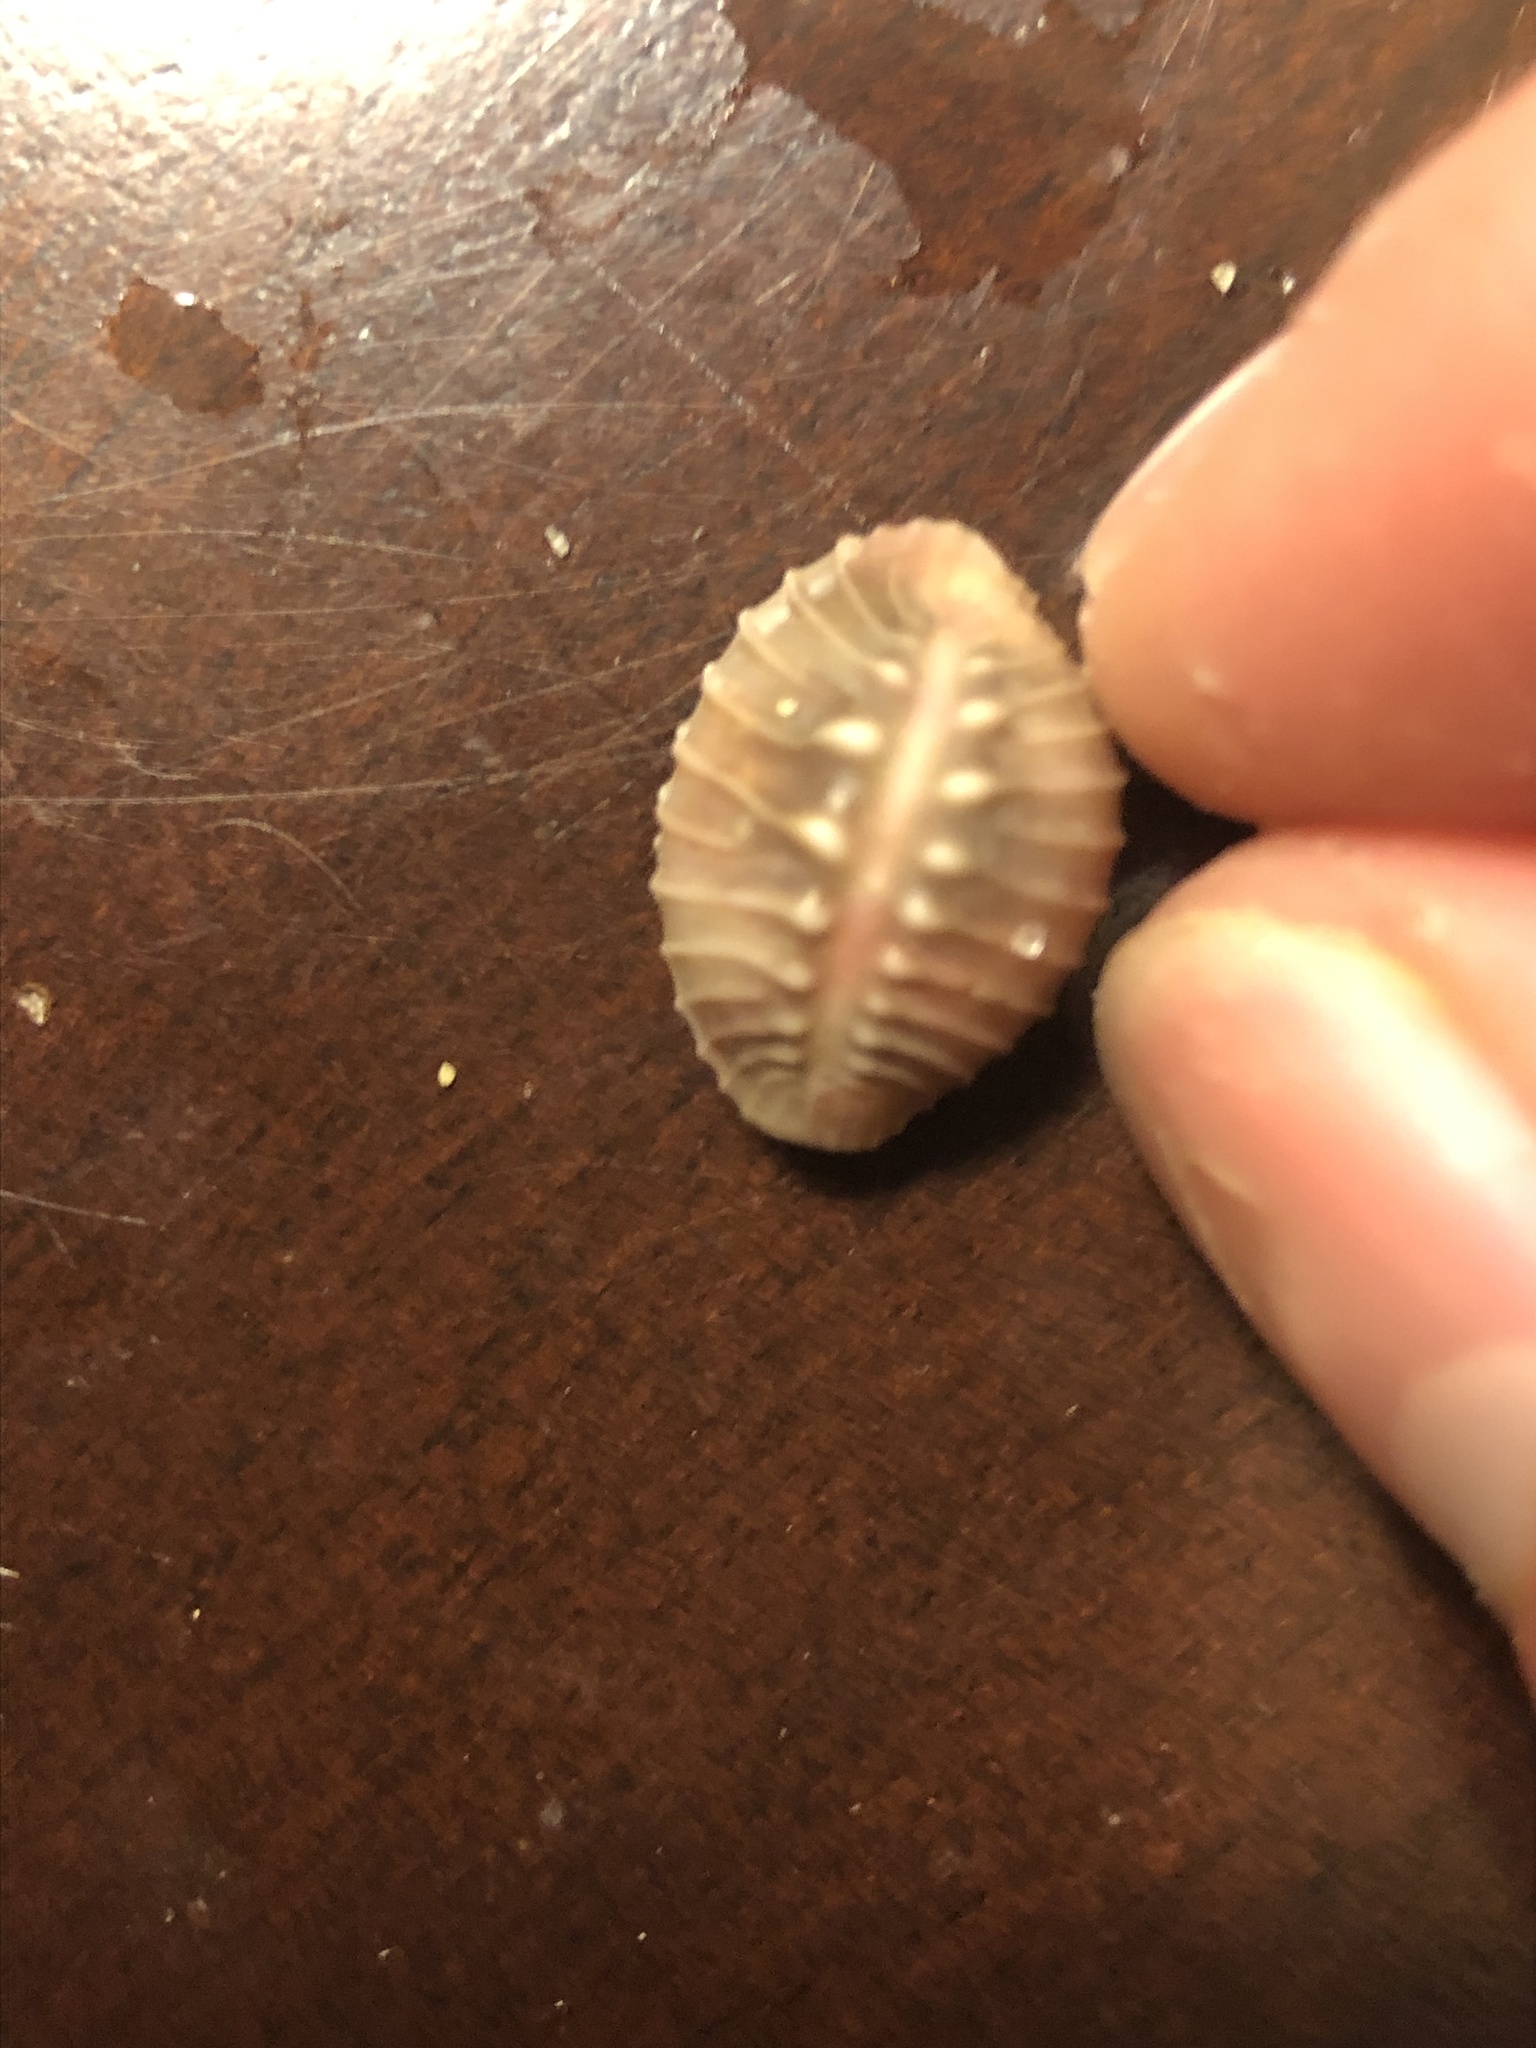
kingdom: Animalia
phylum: Mollusca
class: Gastropoda
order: Littorinimorpha
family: Triviidae
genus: Pusula
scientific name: Pusula solandri
